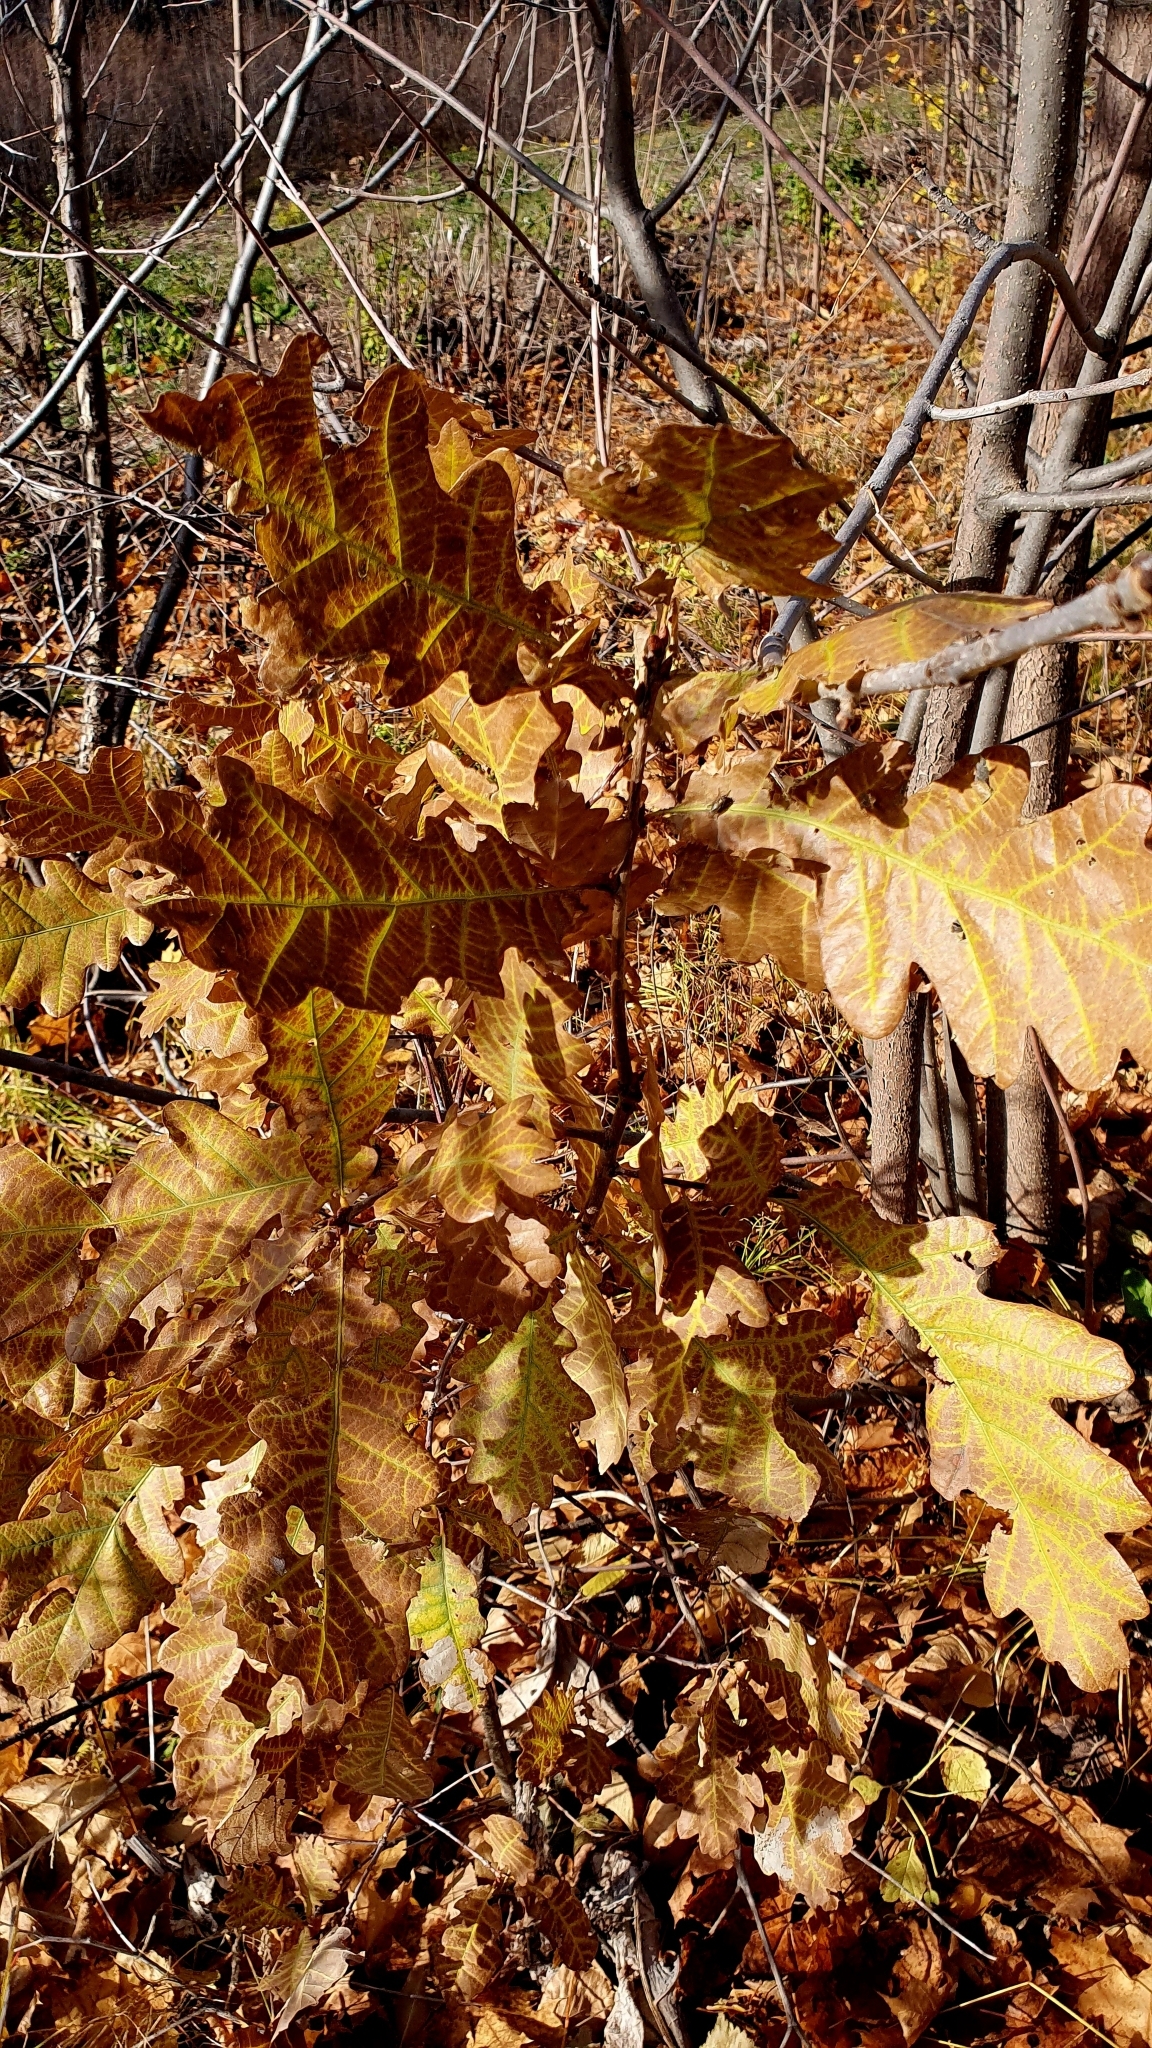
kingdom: Plantae
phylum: Tracheophyta
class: Magnoliopsida
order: Fagales
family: Fagaceae
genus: Quercus
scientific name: Quercus robur
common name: Pedunculate oak
